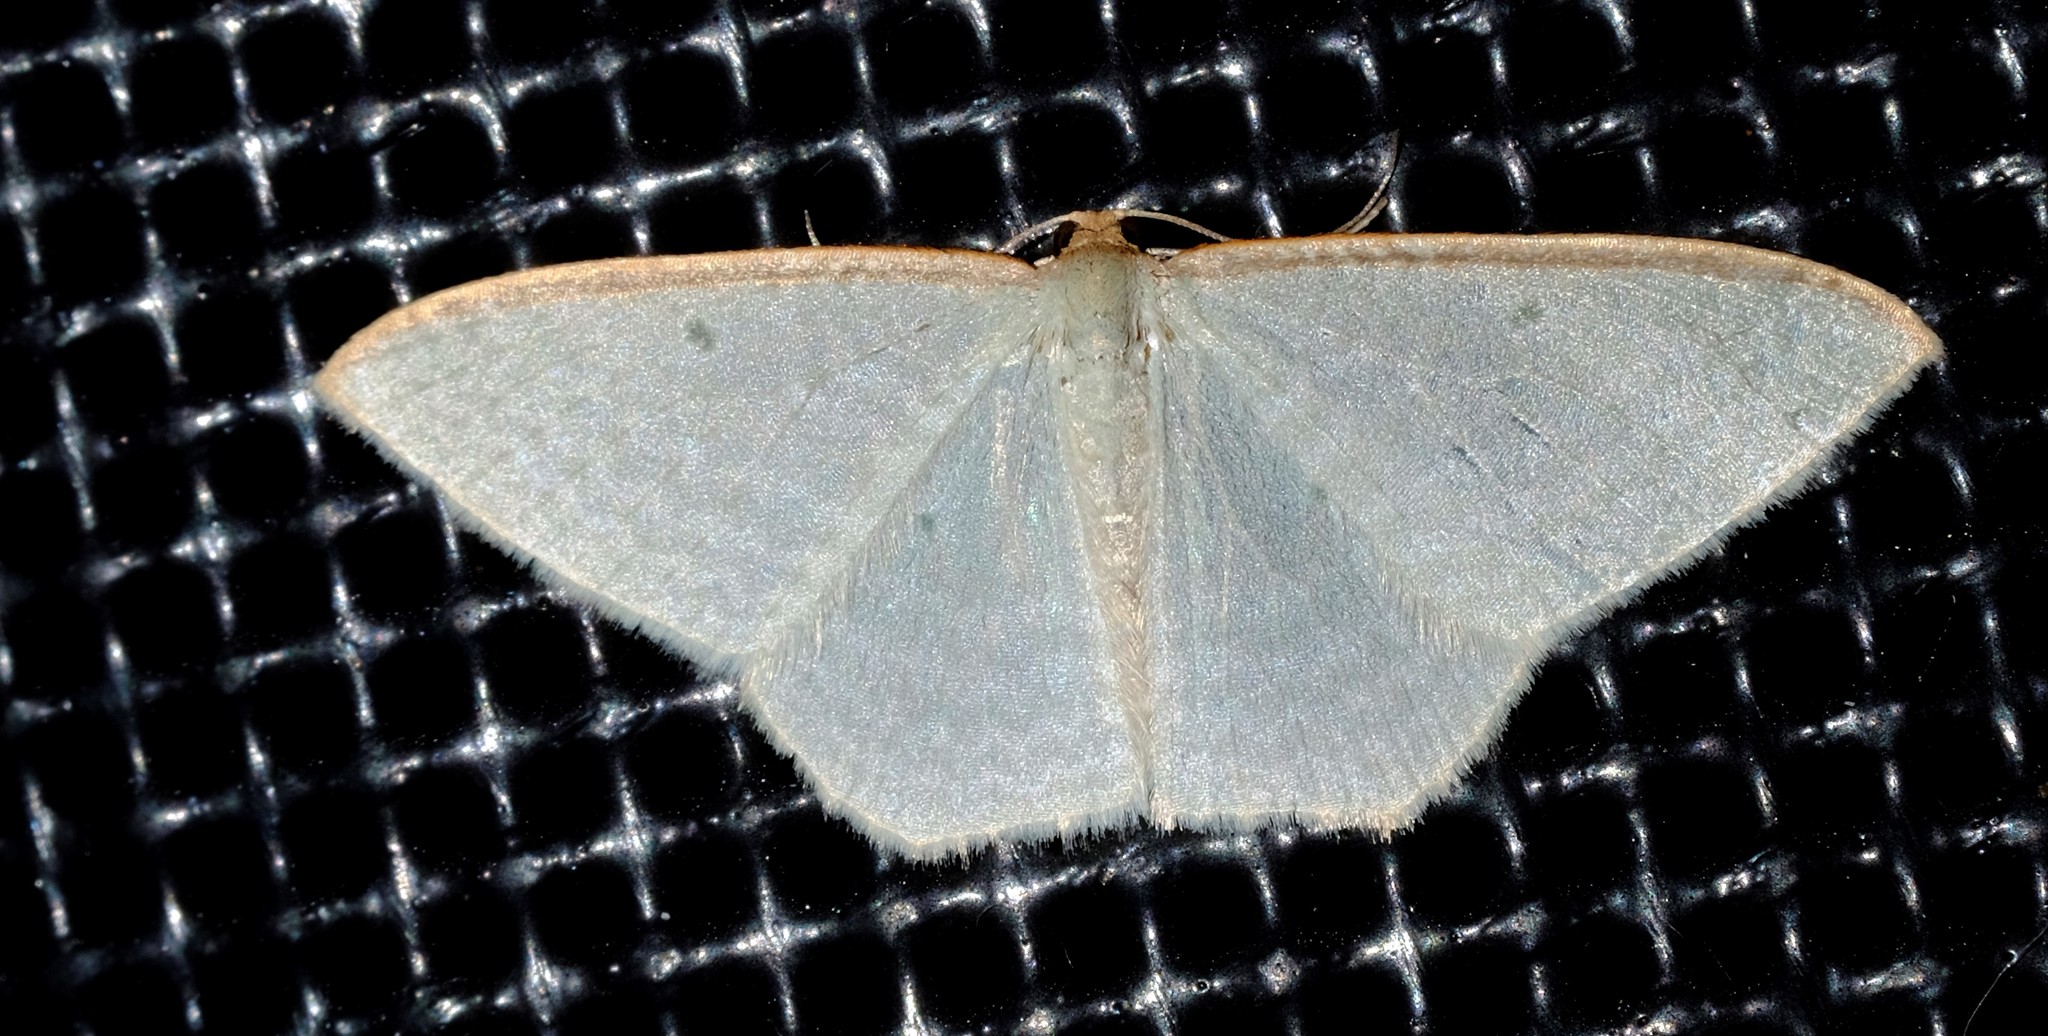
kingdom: Animalia
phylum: Arthropoda
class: Insecta
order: Lepidoptera
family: Geometridae
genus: Poecilasthena
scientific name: Poecilasthena
